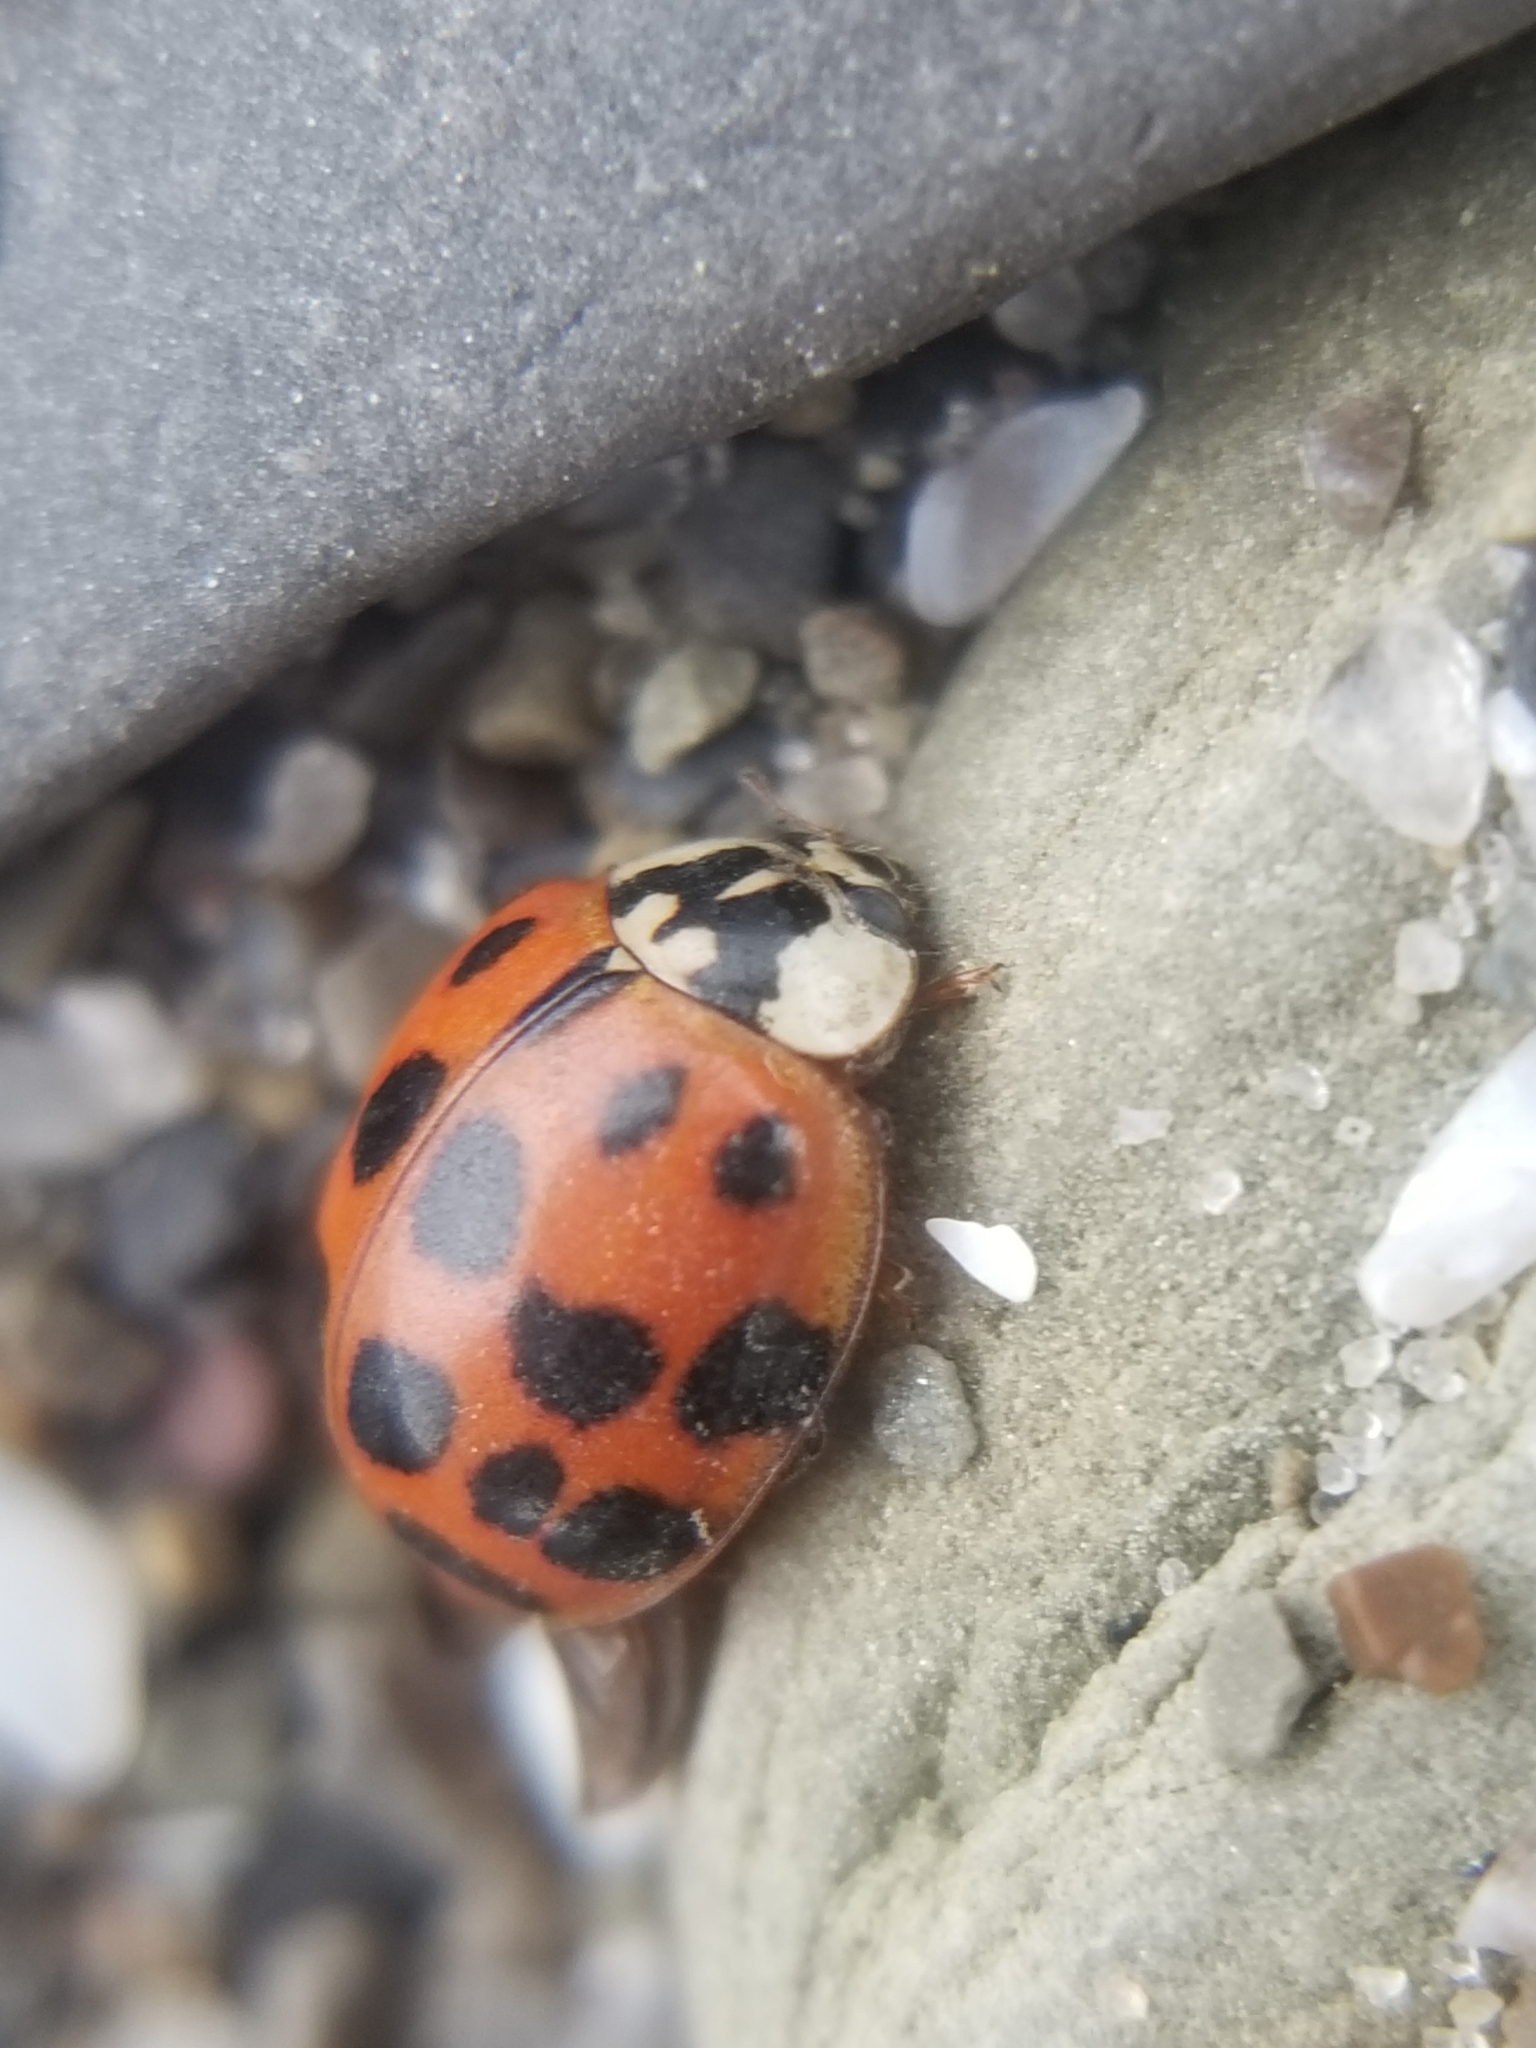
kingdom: Animalia
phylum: Arthropoda
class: Insecta
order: Coleoptera
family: Coccinellidae
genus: Harmonia
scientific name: Harmonia axyridis
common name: Harlequin ladybird
